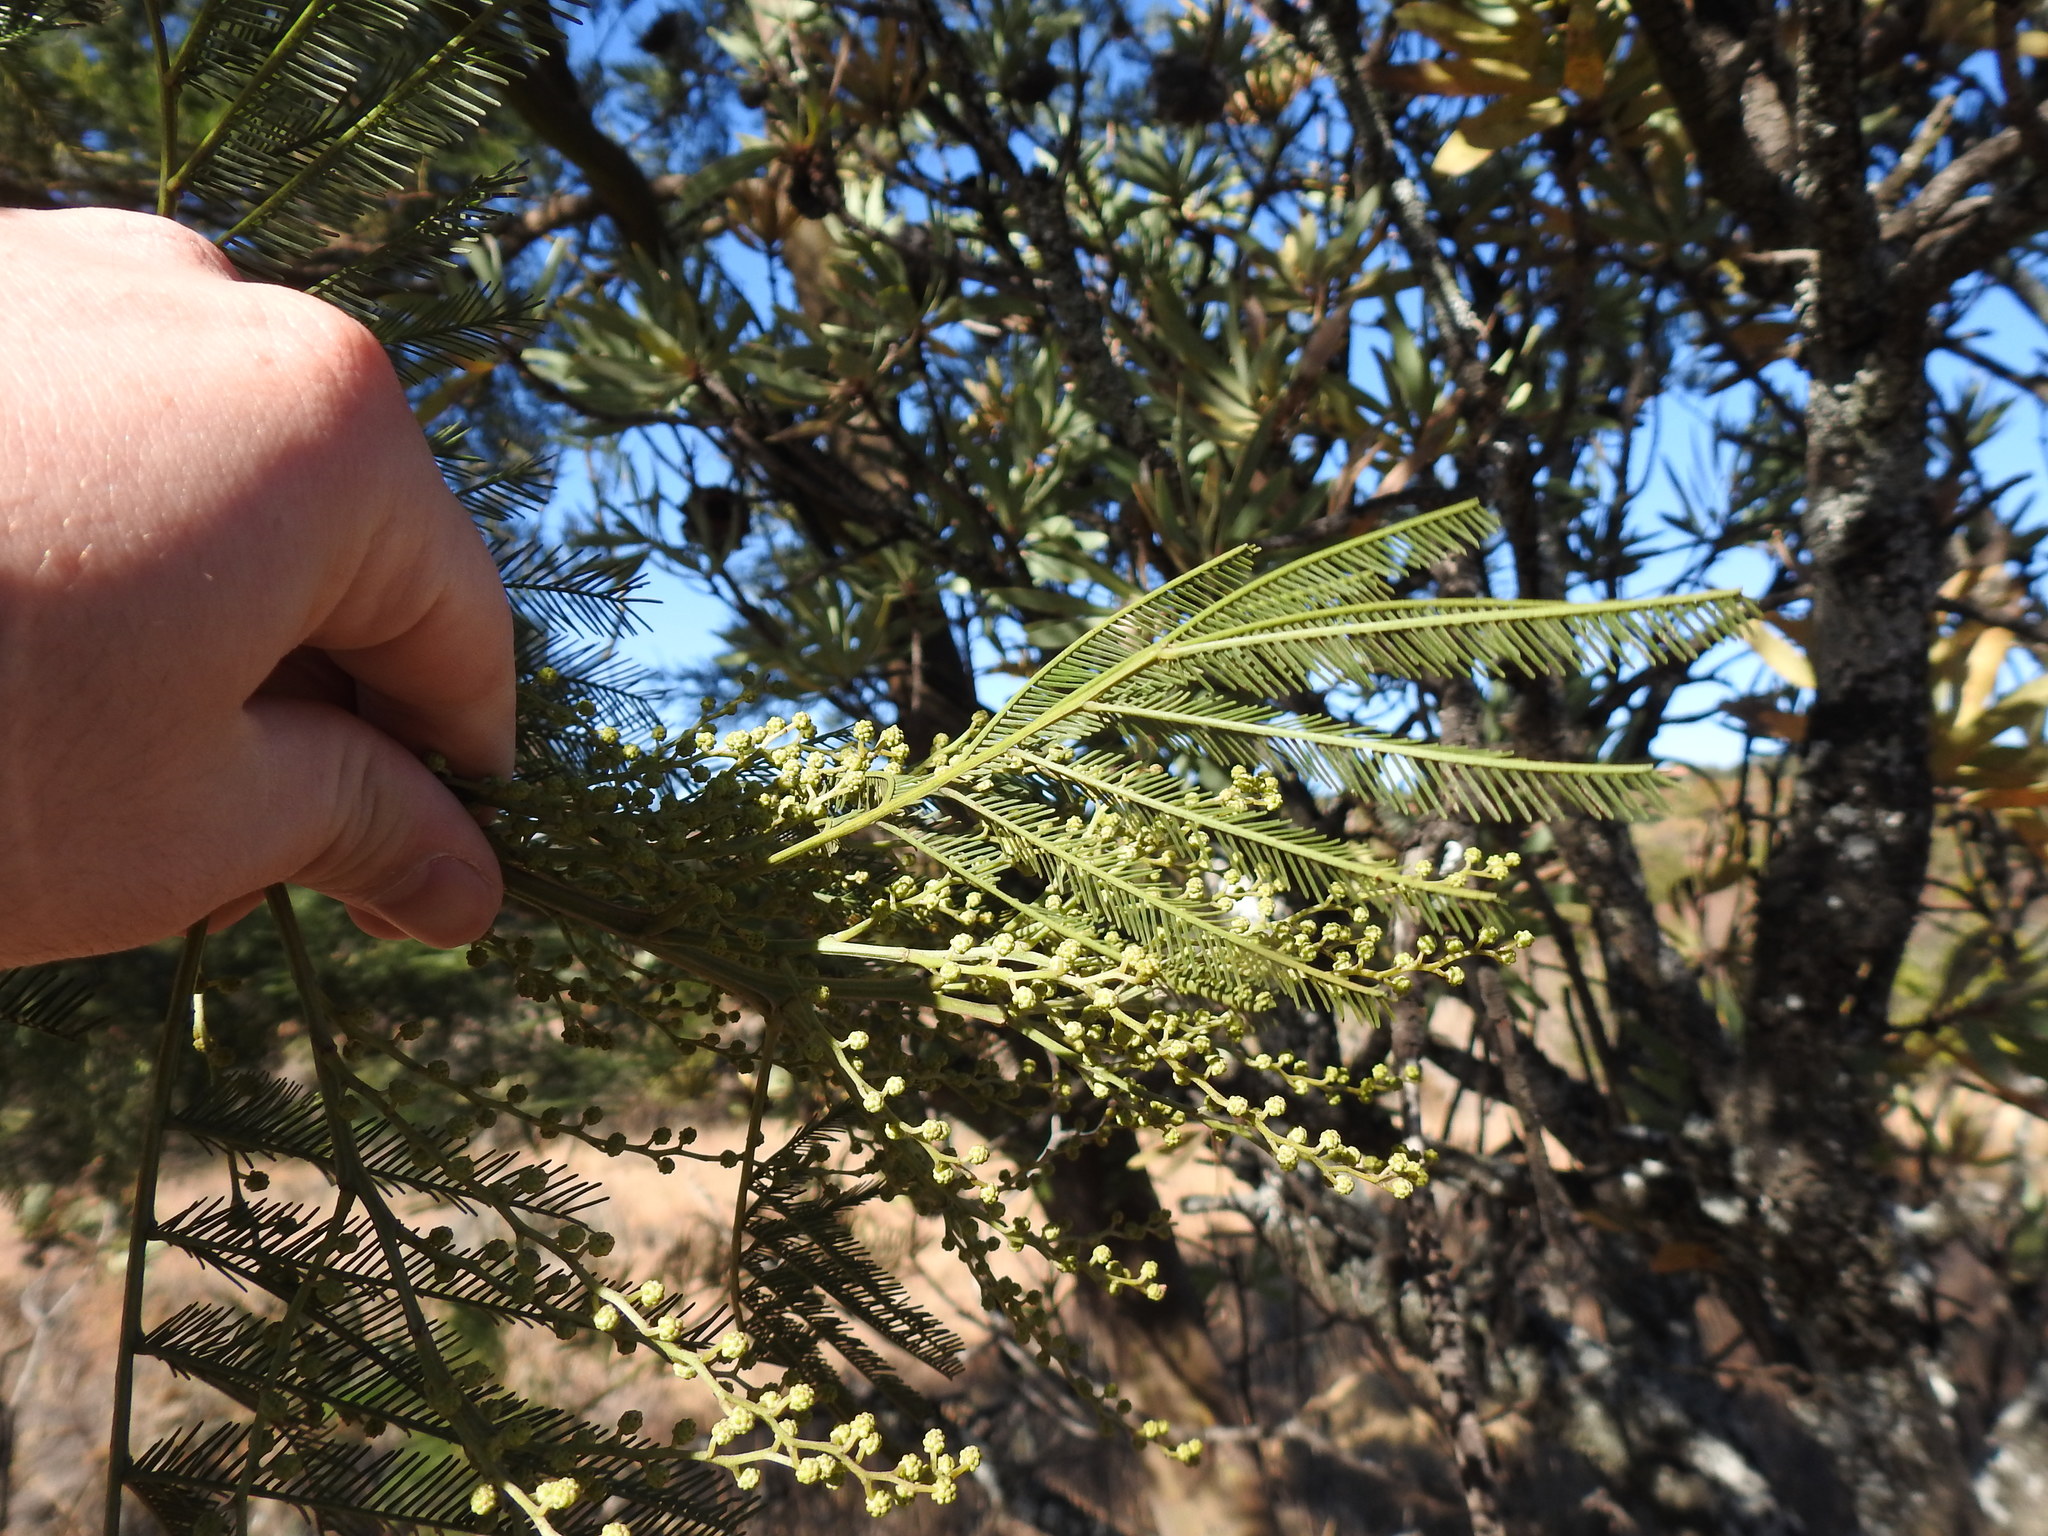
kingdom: Plantae
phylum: Tracheophyta
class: Magnoliopsida
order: Fabales
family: Fabaceae
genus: Acacia
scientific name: Acacia decurrens
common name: Green wattle
